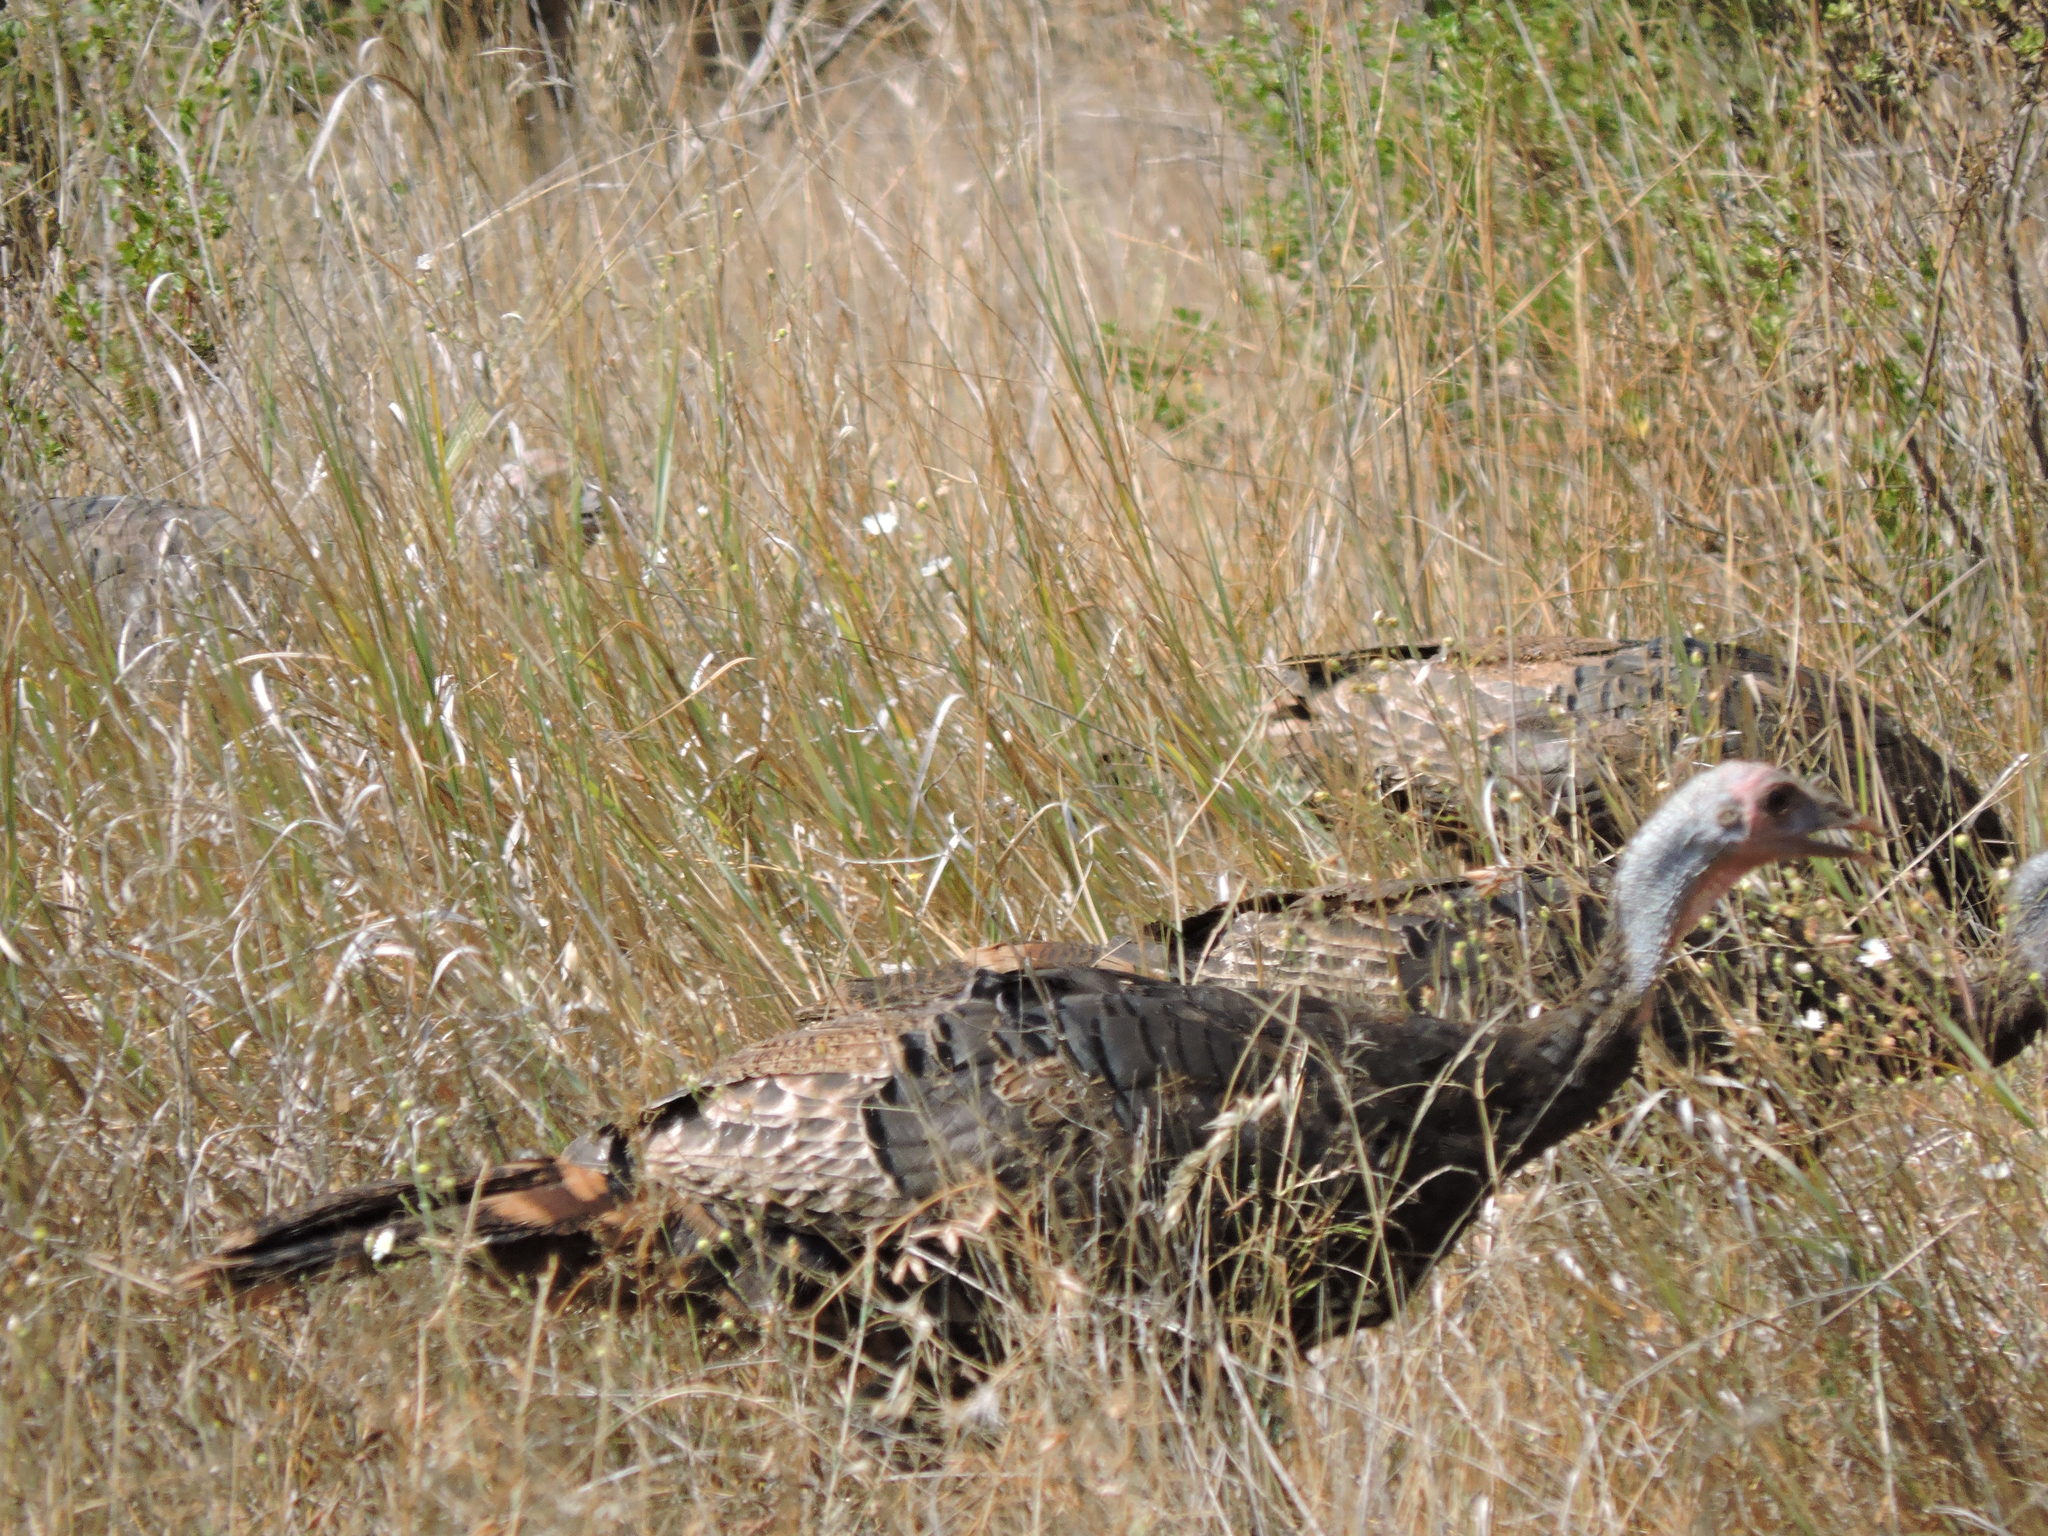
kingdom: Animalia
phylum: Chordata
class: Aves
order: Galliformes
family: Phasianidae
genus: Meleagris
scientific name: Meleagris gallopavo
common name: Wild turkey
